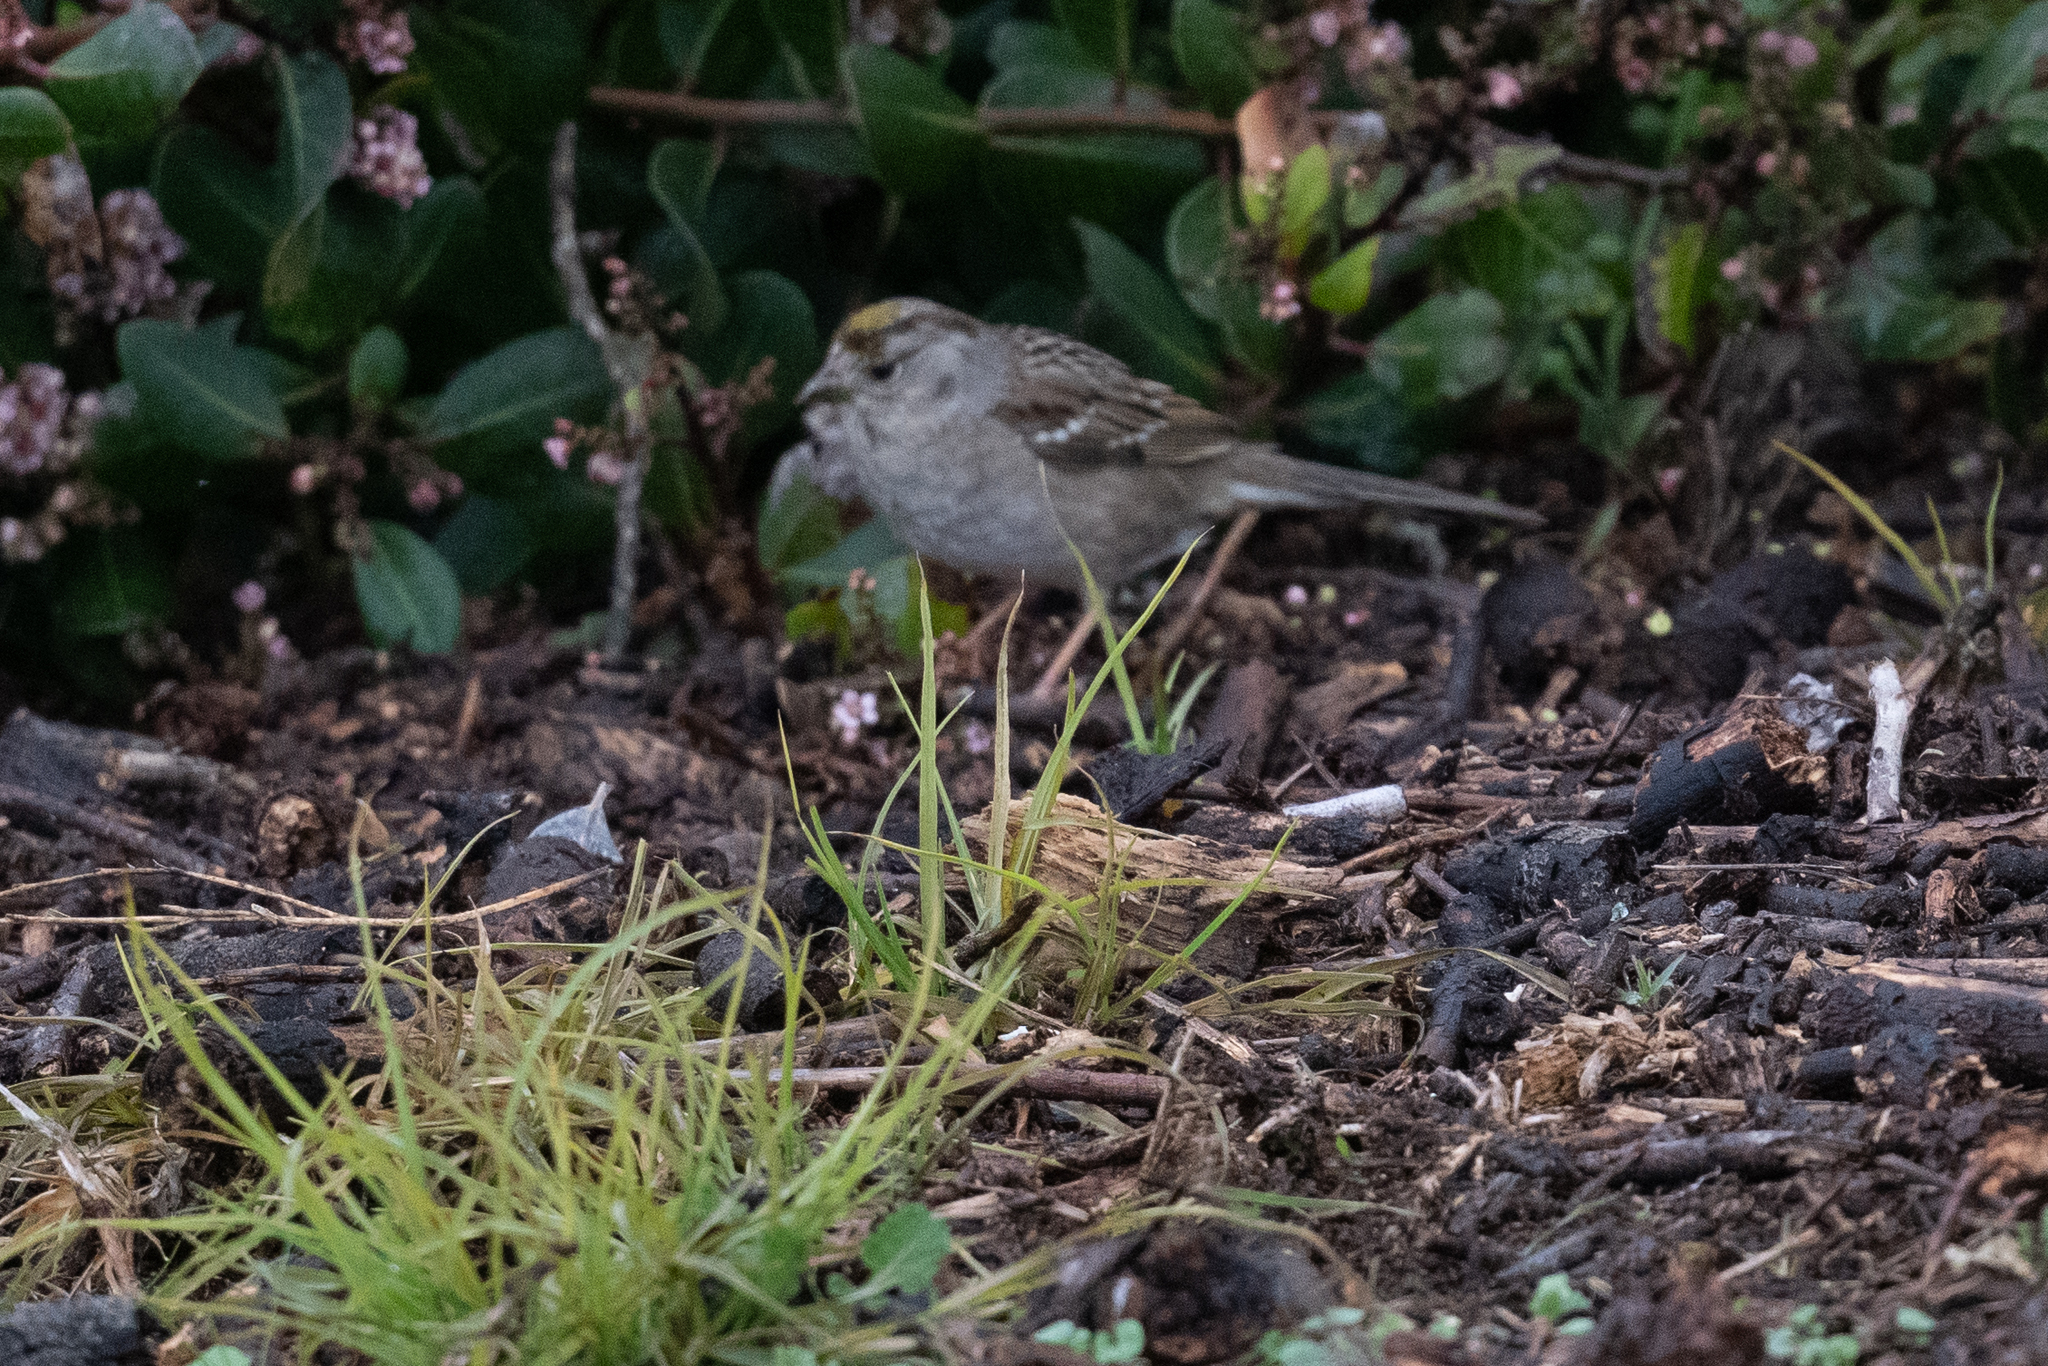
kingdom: Animalia
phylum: Chordata
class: Aves
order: Passeriformes
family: Passerellidae
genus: Zonotrichia
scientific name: Zonotrichia atricapilla
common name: Golden-crowned sparrow
